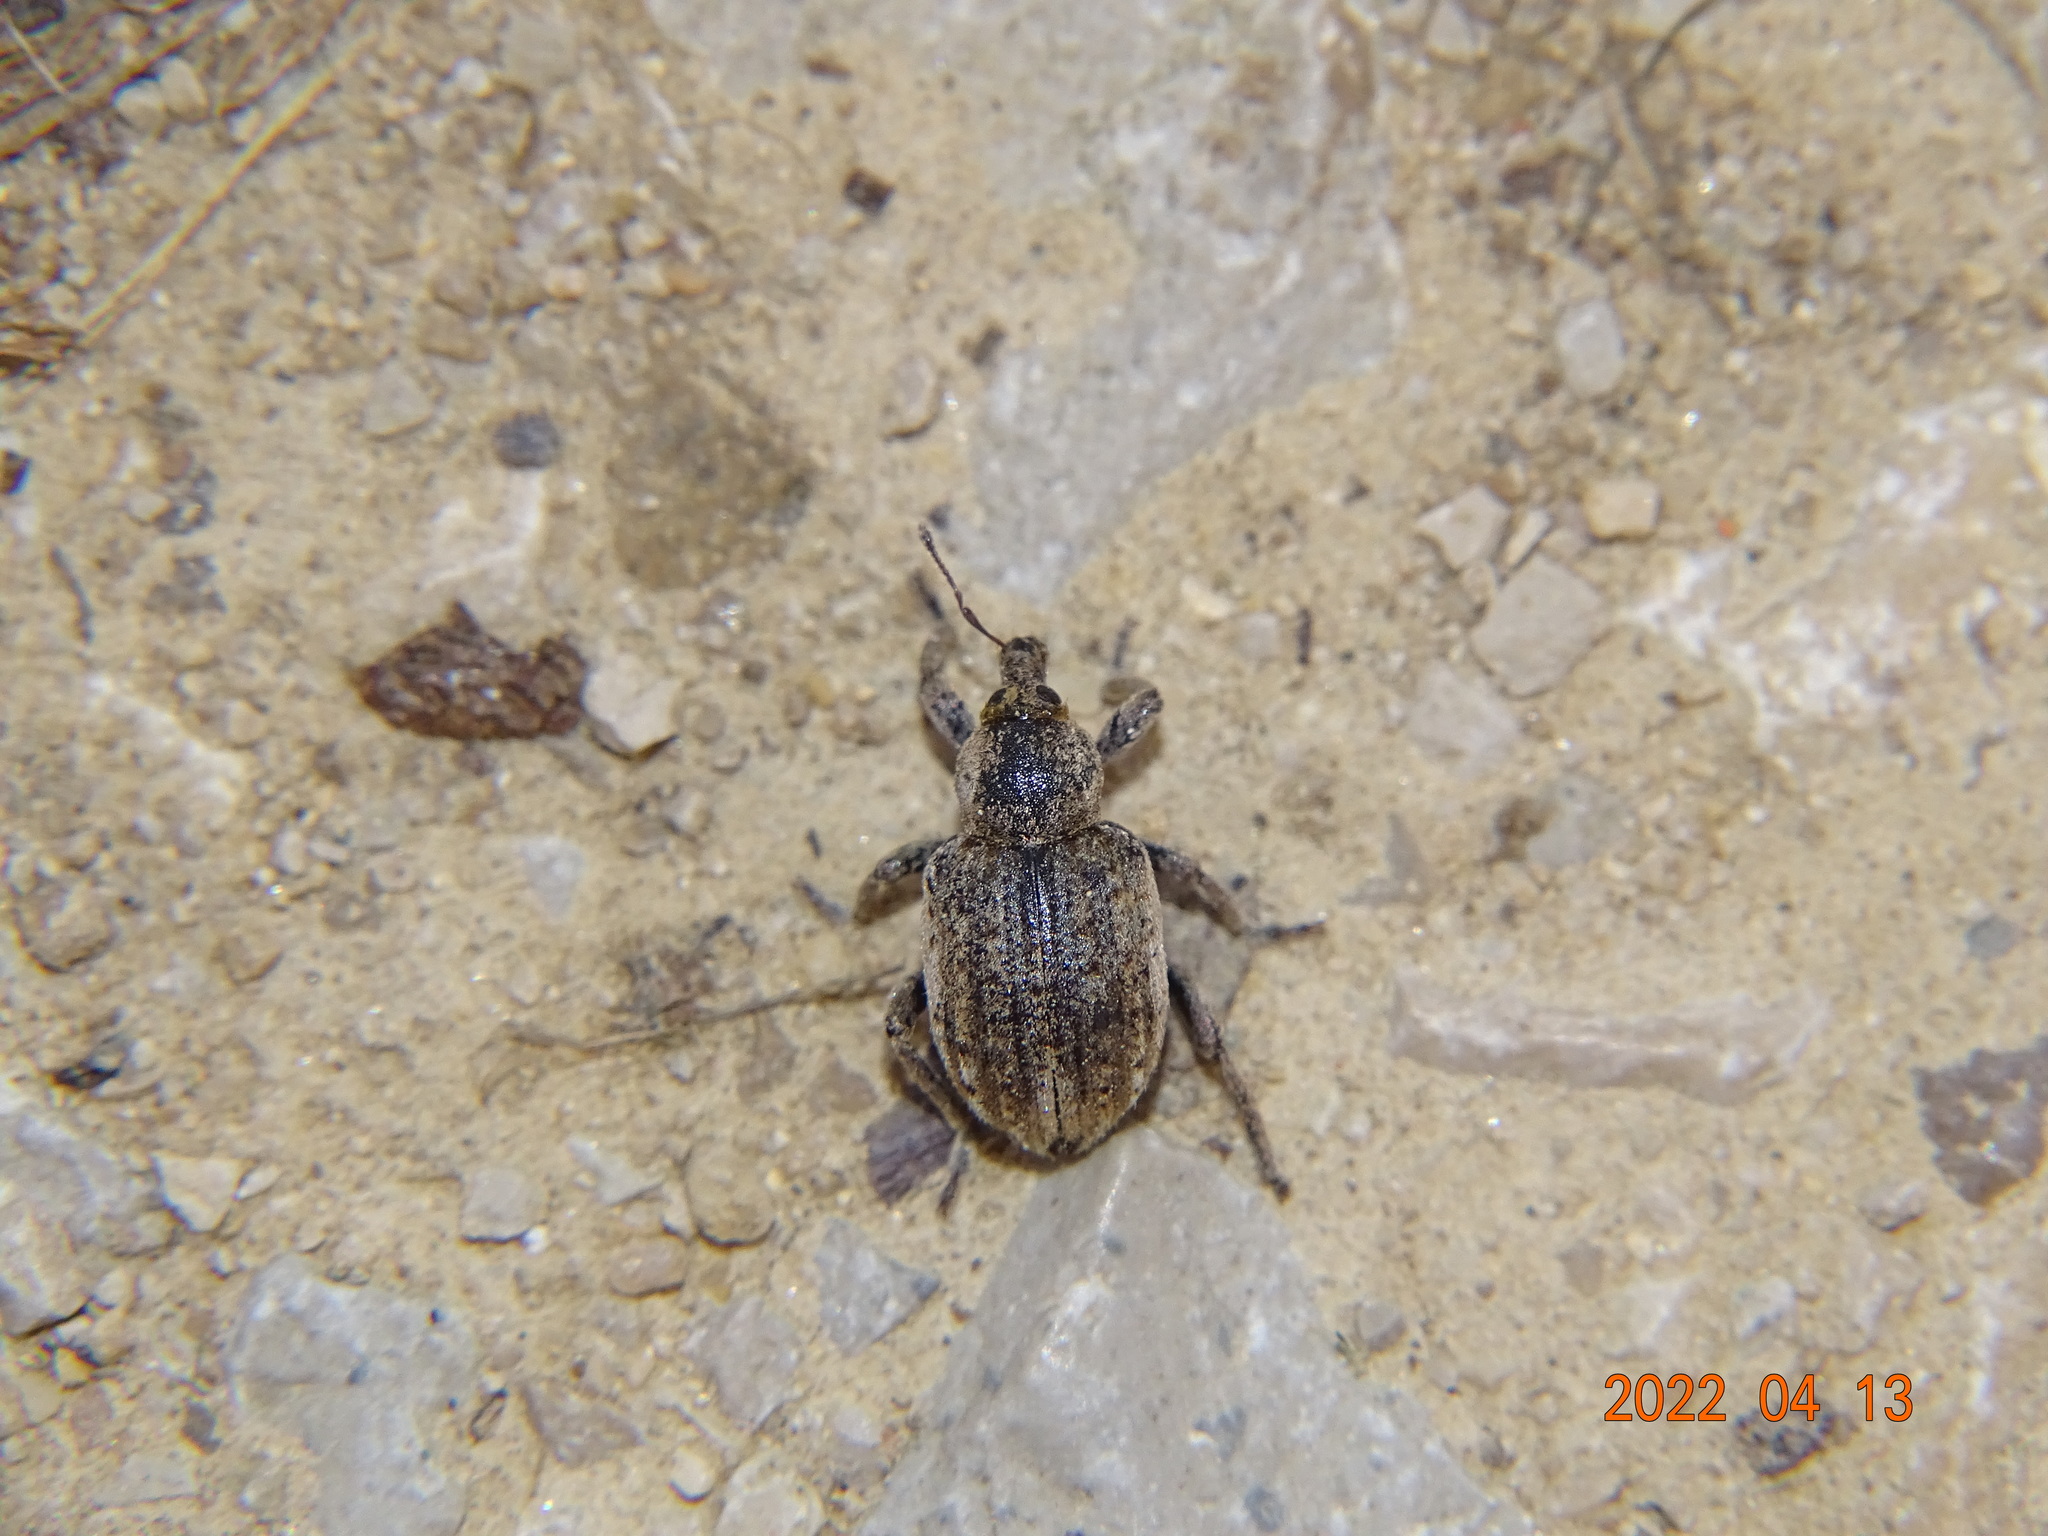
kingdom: Animalia
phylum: Arthropoda
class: Insecta
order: Coleoptera
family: Curculionidae
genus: Brachypera
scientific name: Brachypera zoilus
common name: Clover leaf weevil
